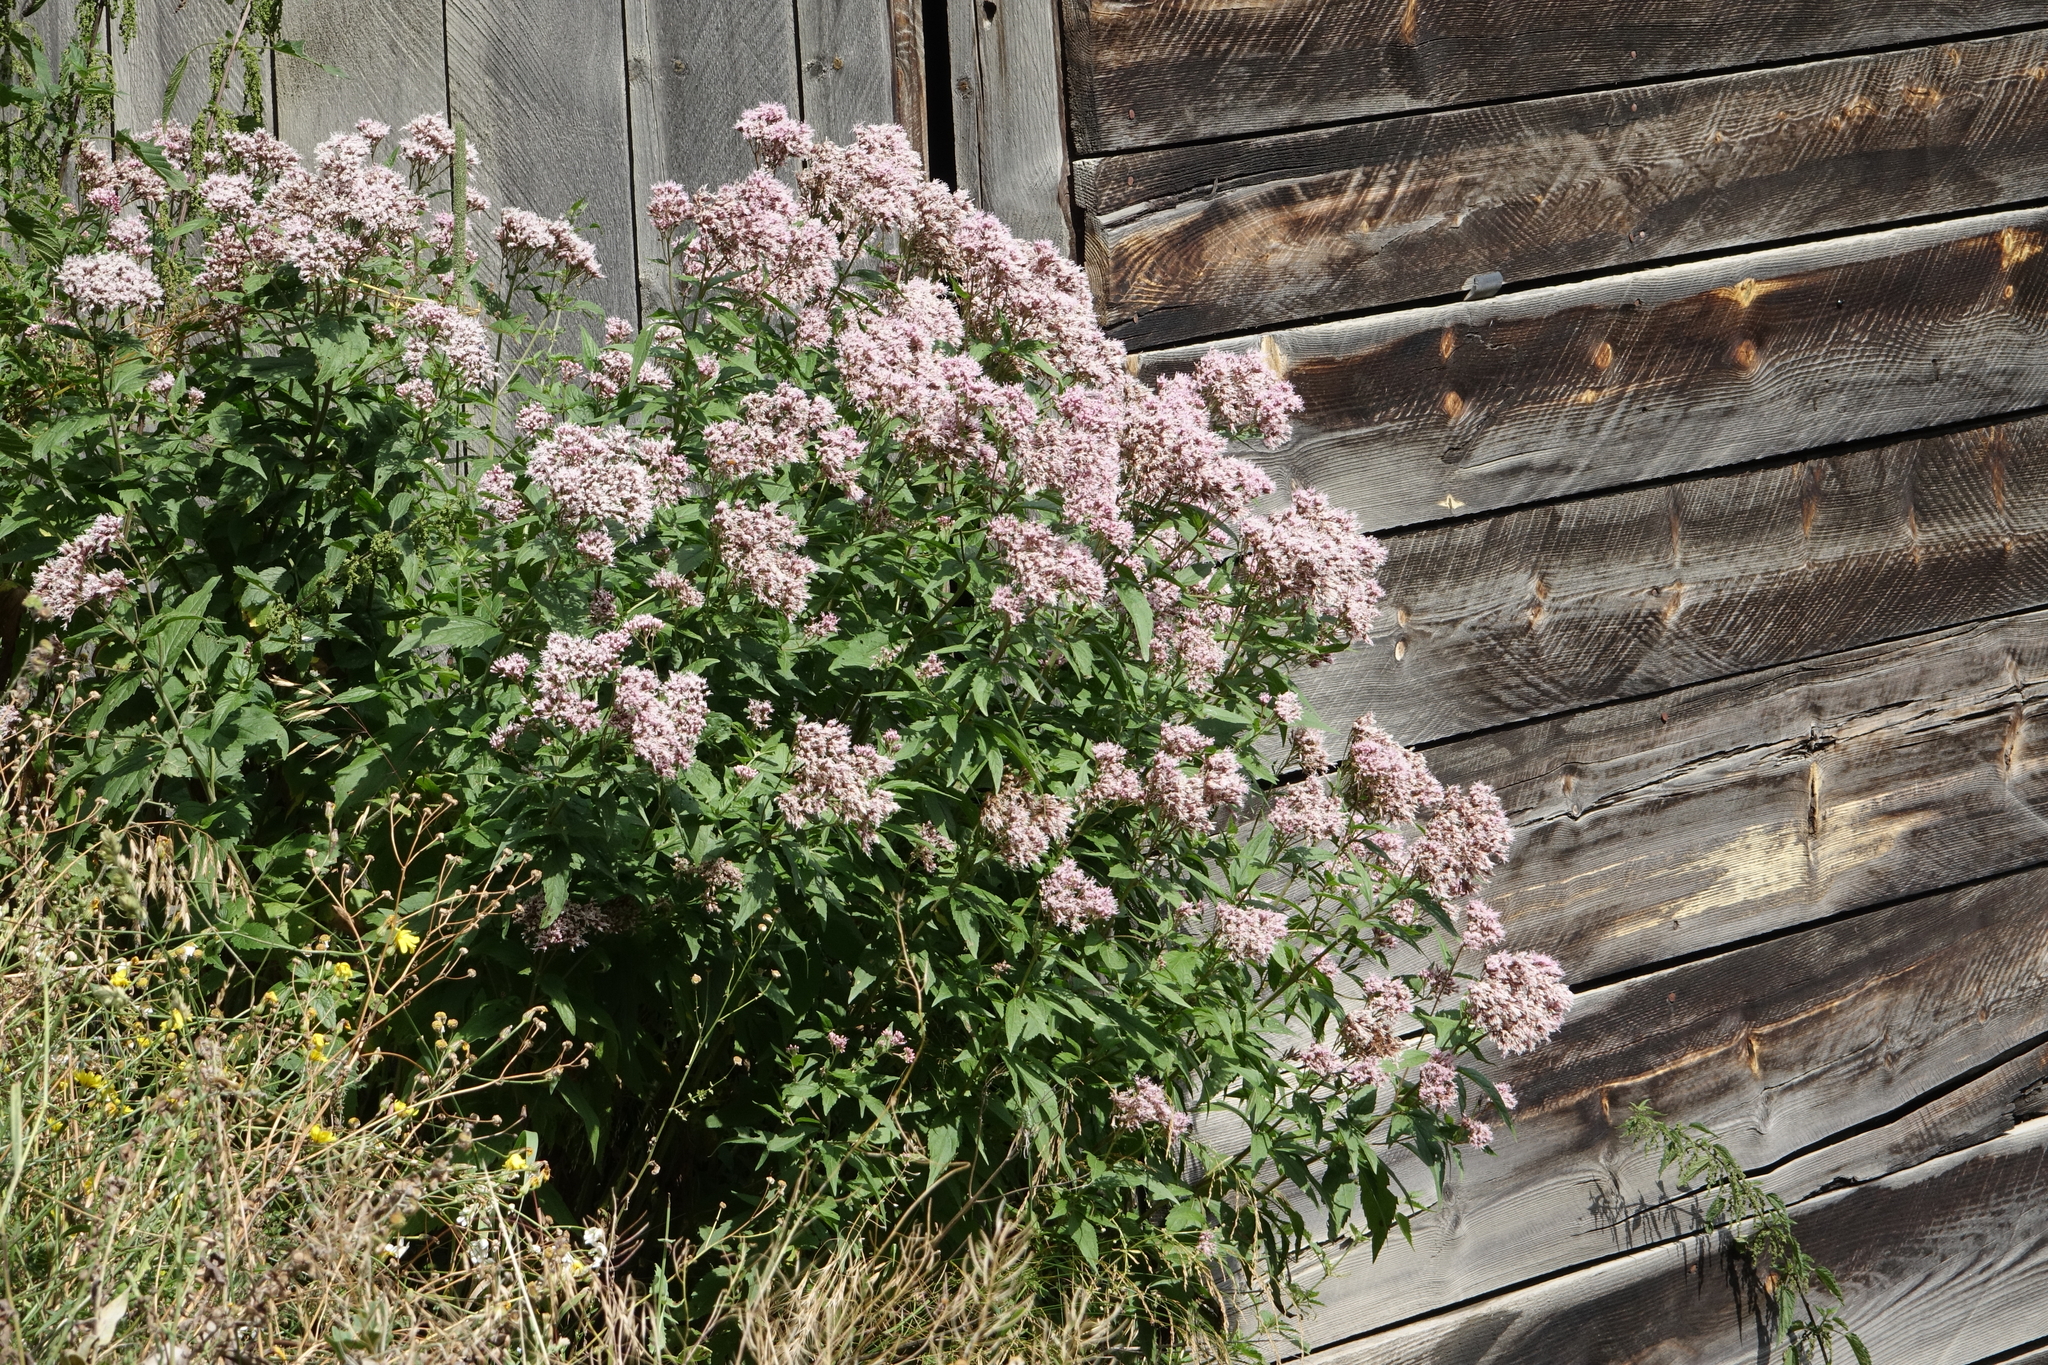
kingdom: Plantae
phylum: Tracheophyta
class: Magnoliopsida
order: Asterales
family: Asteraceae
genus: Eupatorium
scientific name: Eupatorium cannabinum
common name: Hemp-agrimony
